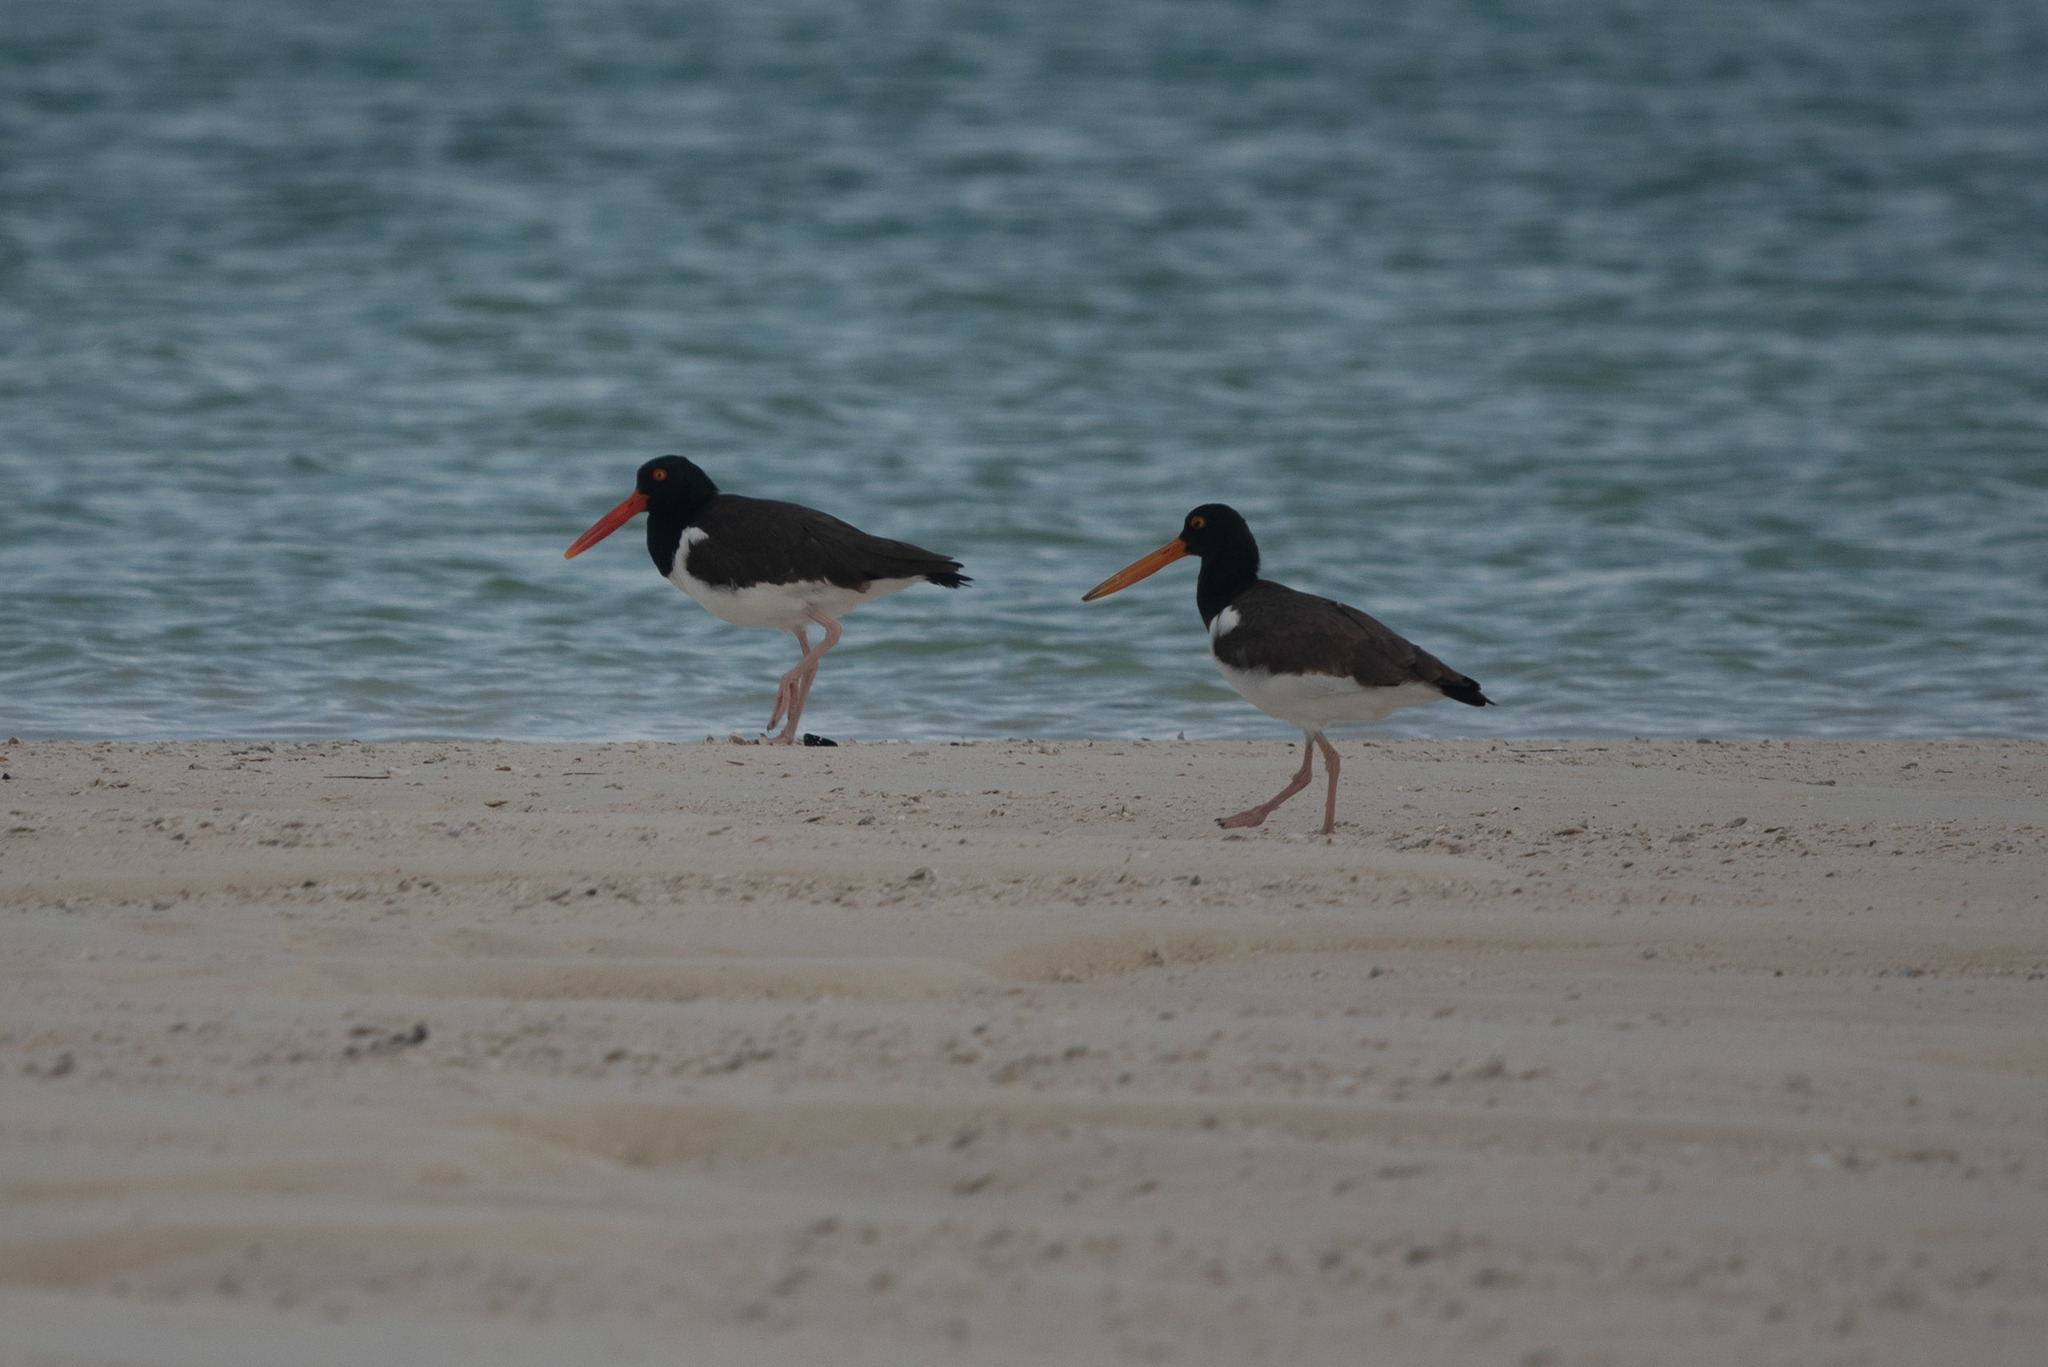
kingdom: Animalia
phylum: Chordata
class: Aves
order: Charadriiformes
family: Haematopodidae
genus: Haematopus
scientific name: Haematopus palliatus
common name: American oystercatcher
